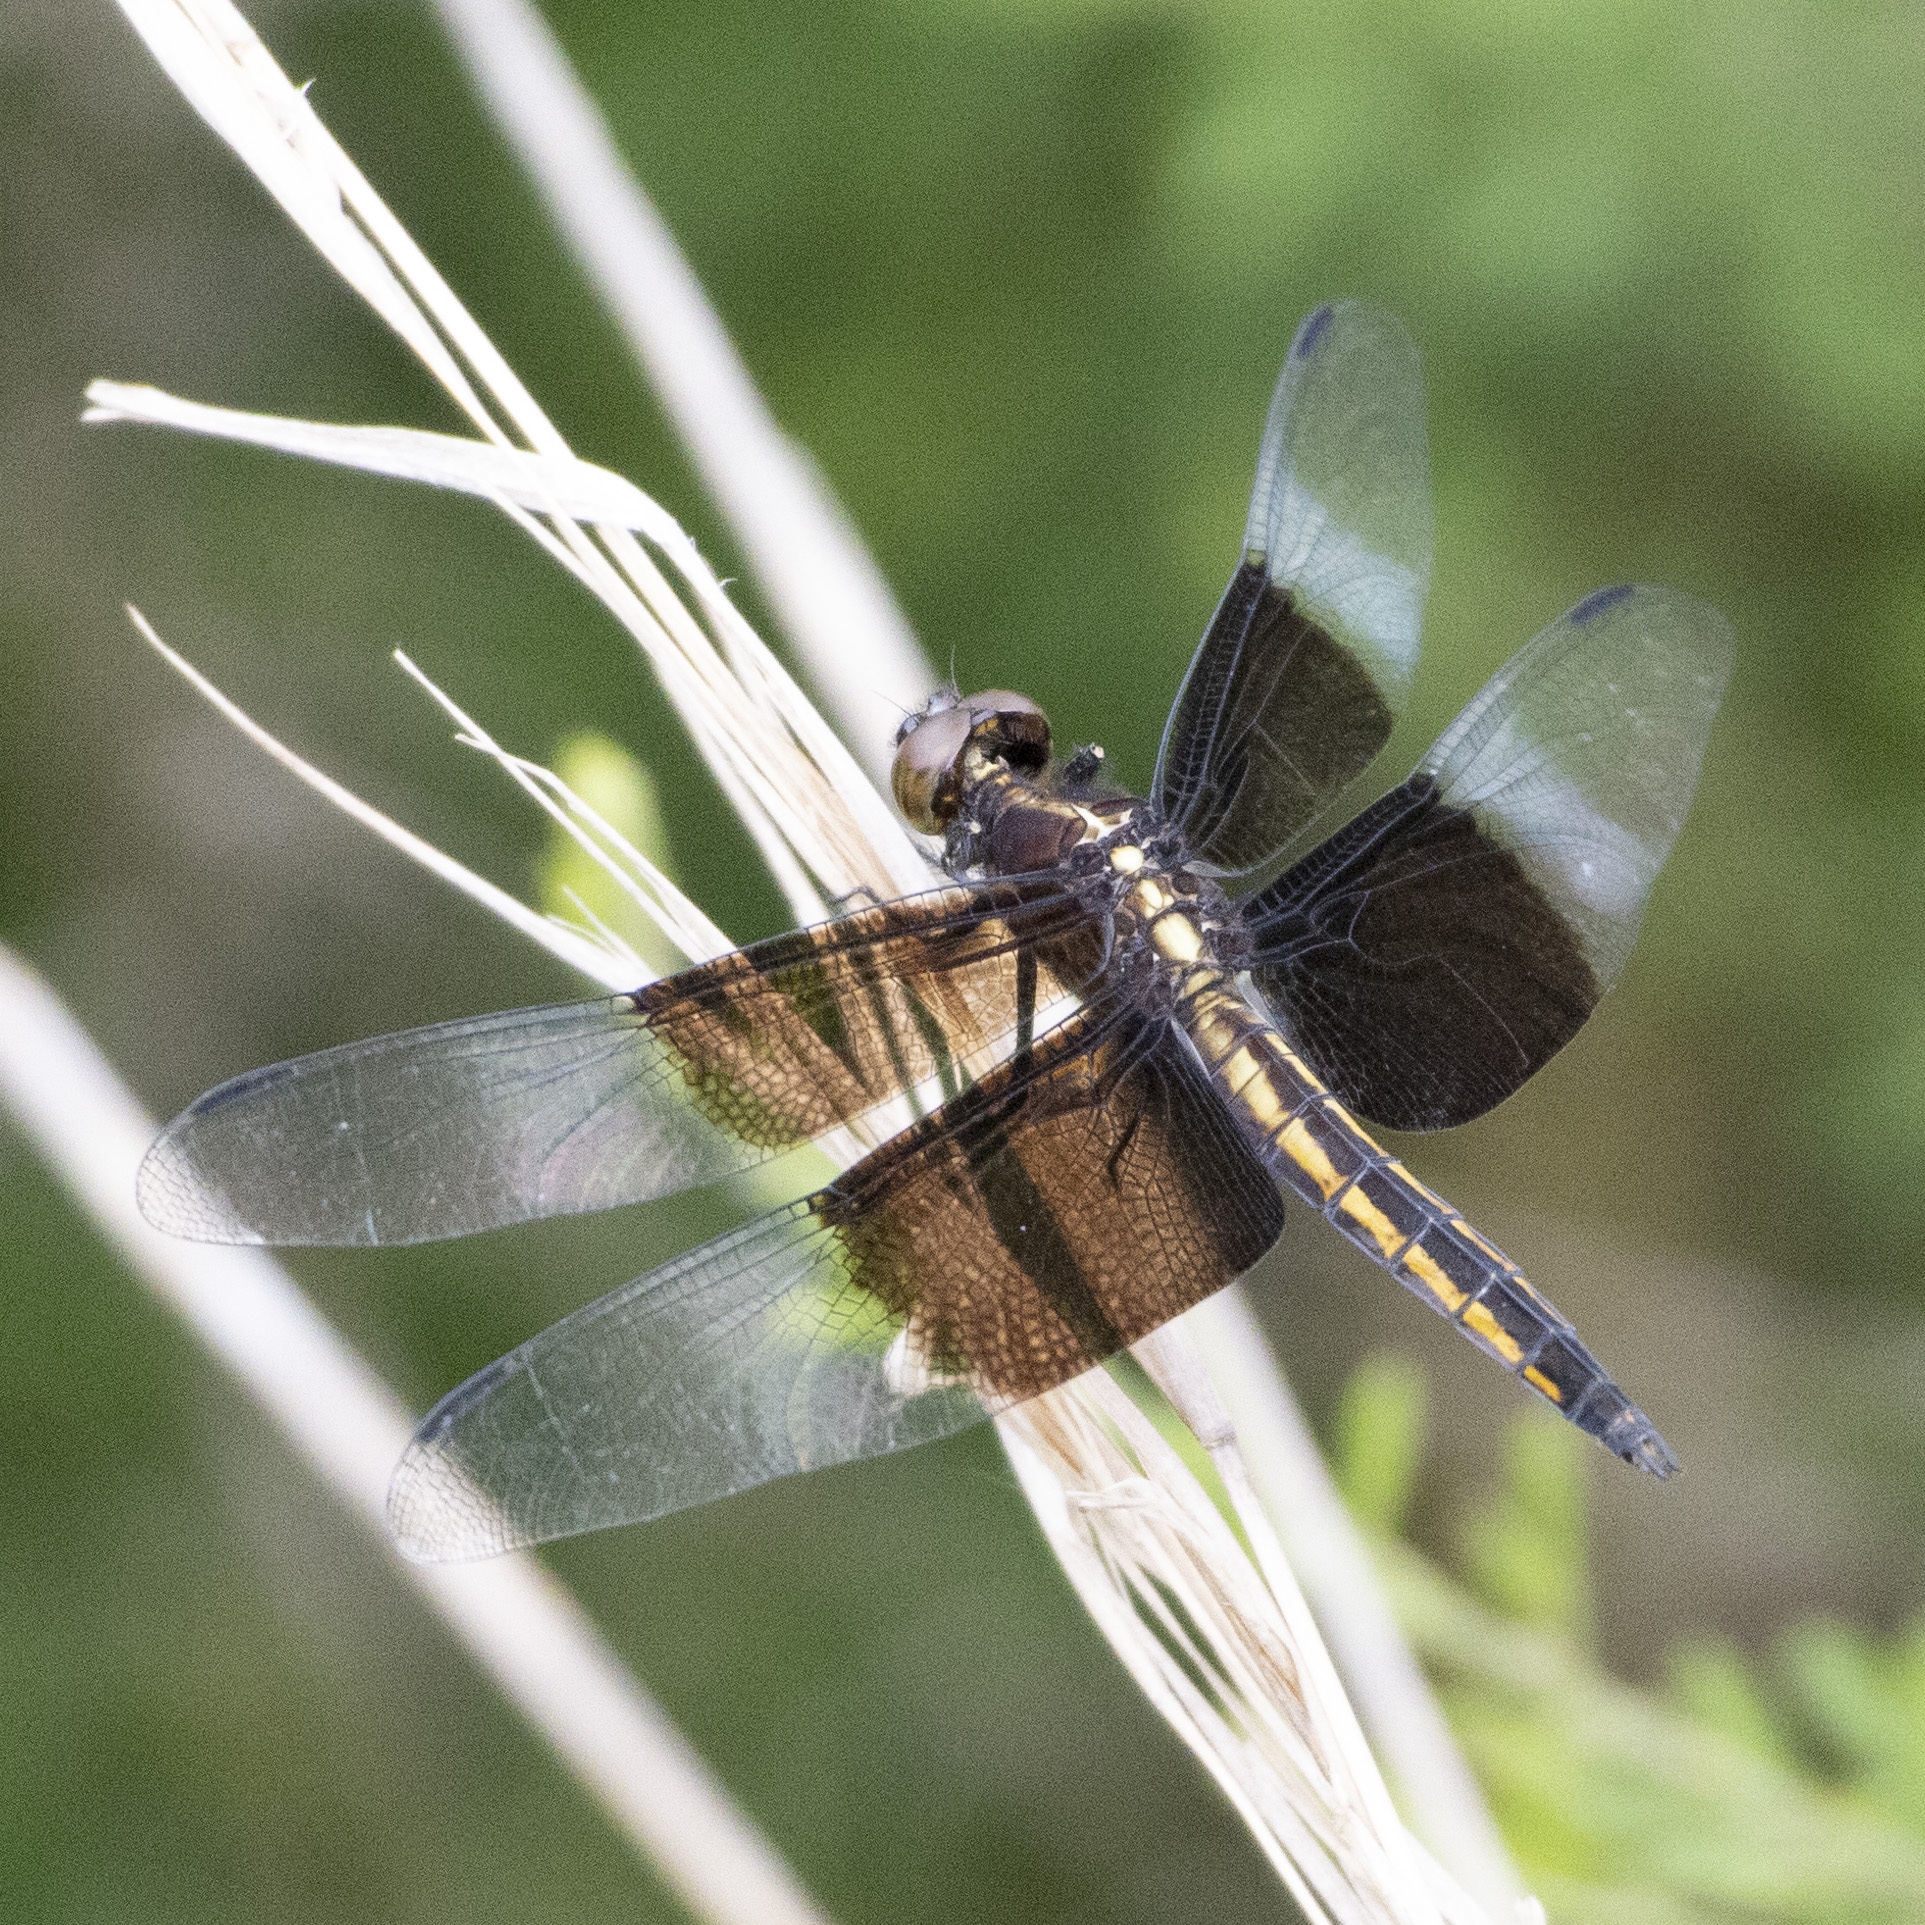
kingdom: Animalia
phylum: Arthropoda
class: Insecta
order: Odonata
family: Libellulidae
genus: Libellula
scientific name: Libellula luctuosa
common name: Widow skimmer
